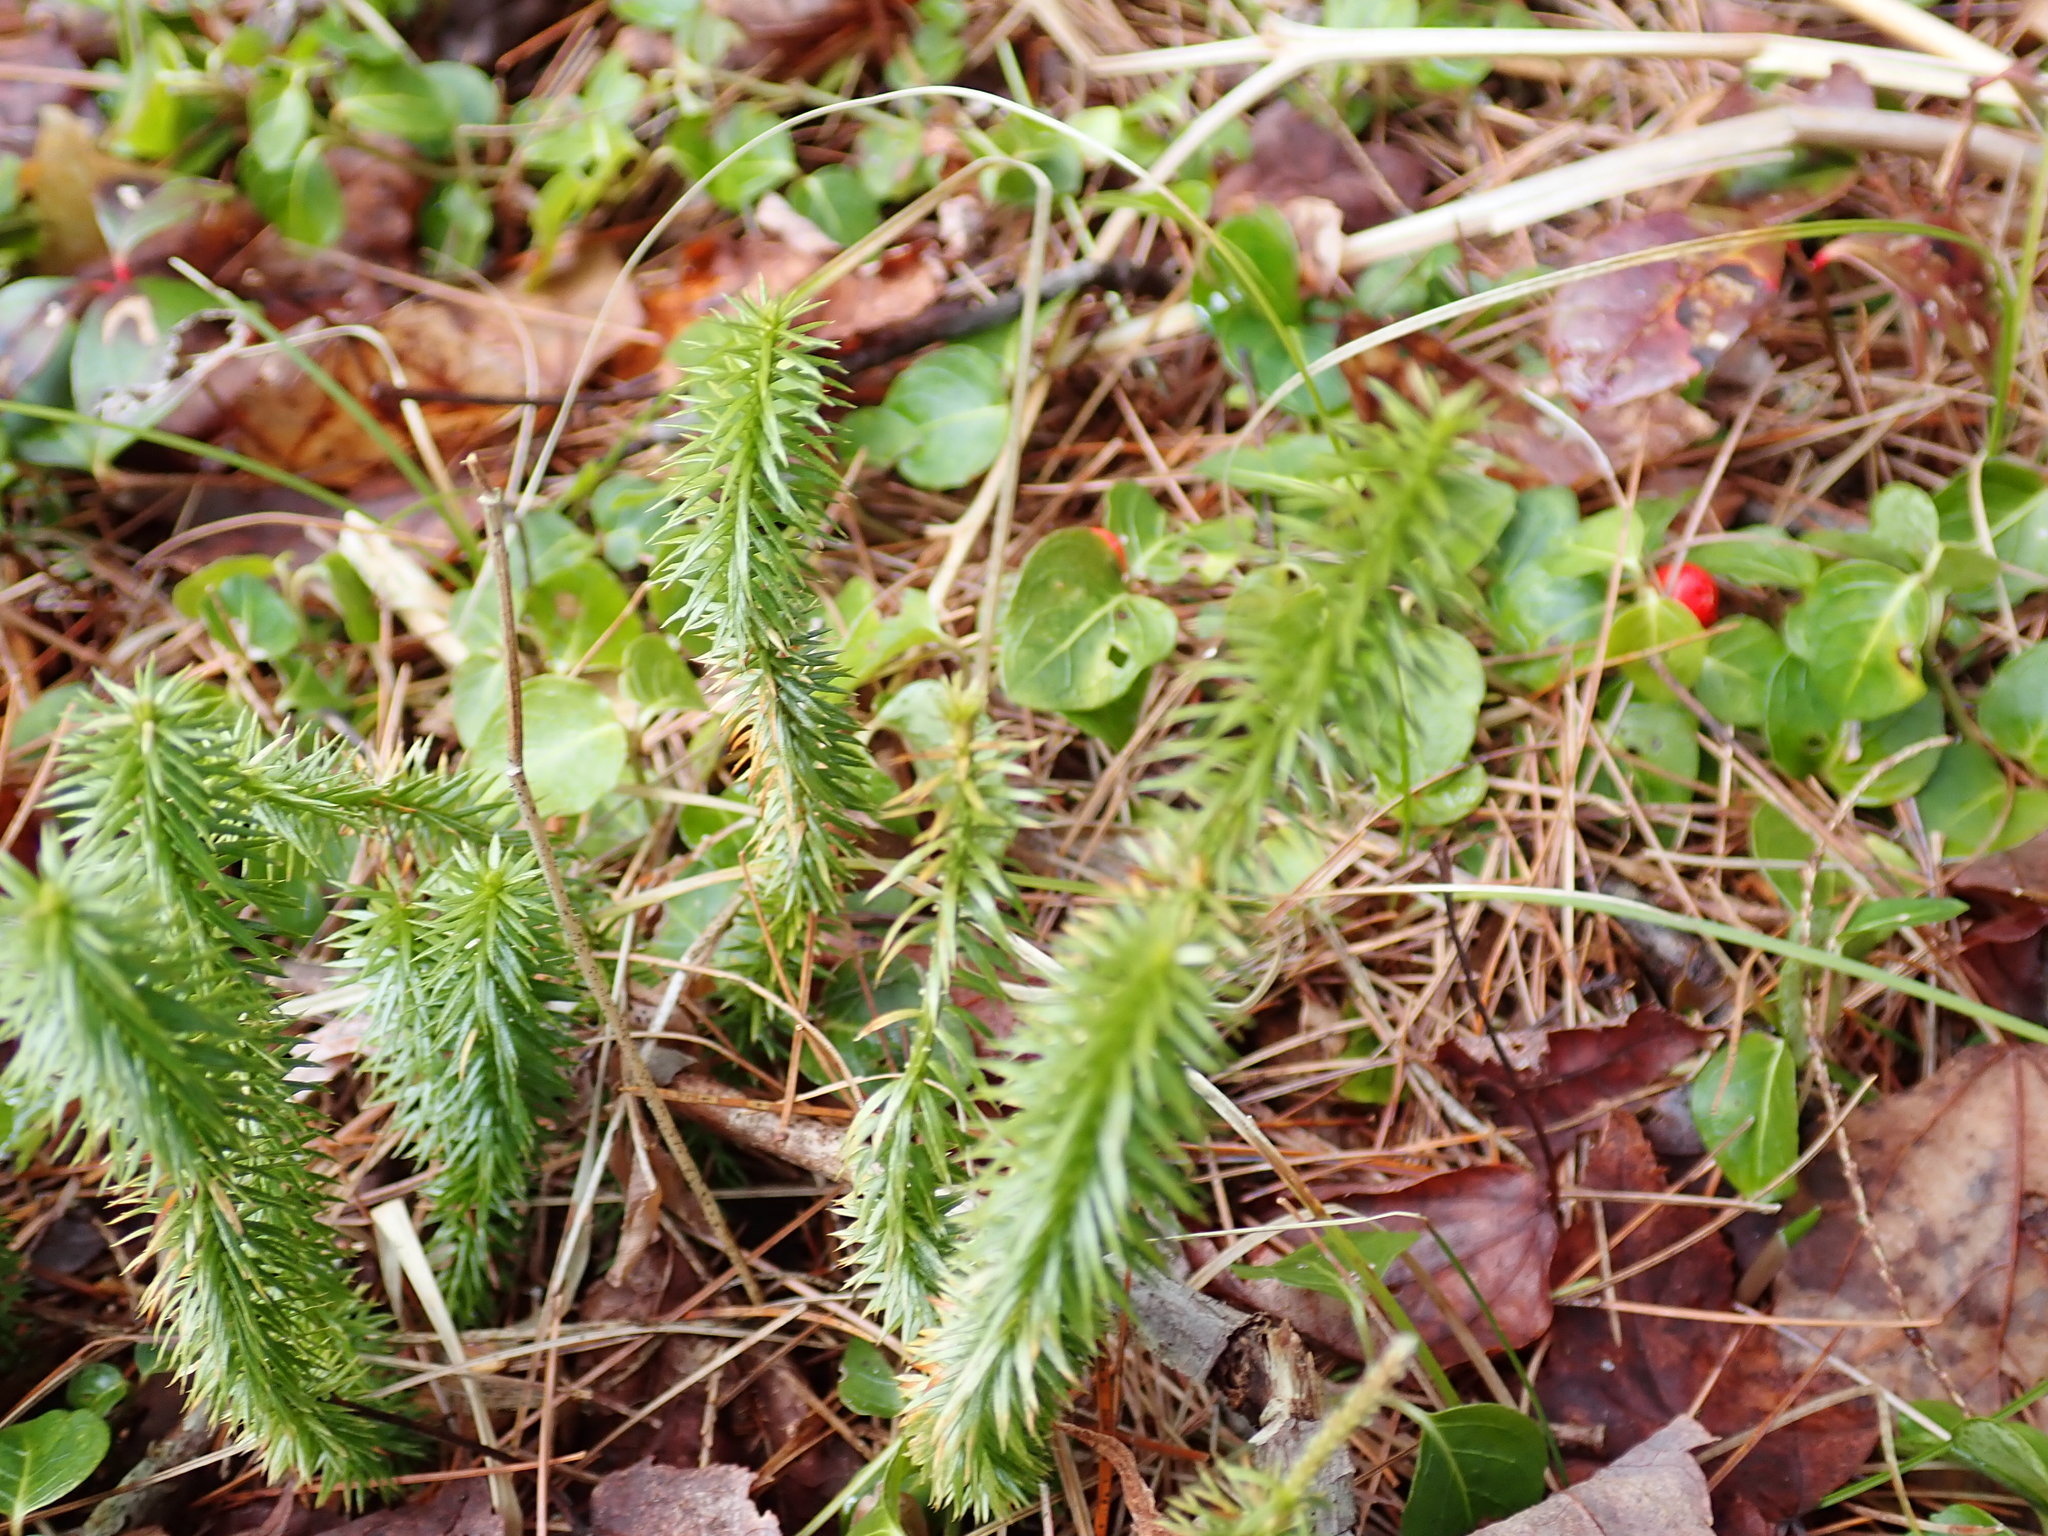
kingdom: Plantae
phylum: Tracheophyta
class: Lycopodiopsida
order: Lycopodiales
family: Lycopodiaceae
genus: Spinulum
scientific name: Spinulum annotinum
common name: Interrupted club-moss
